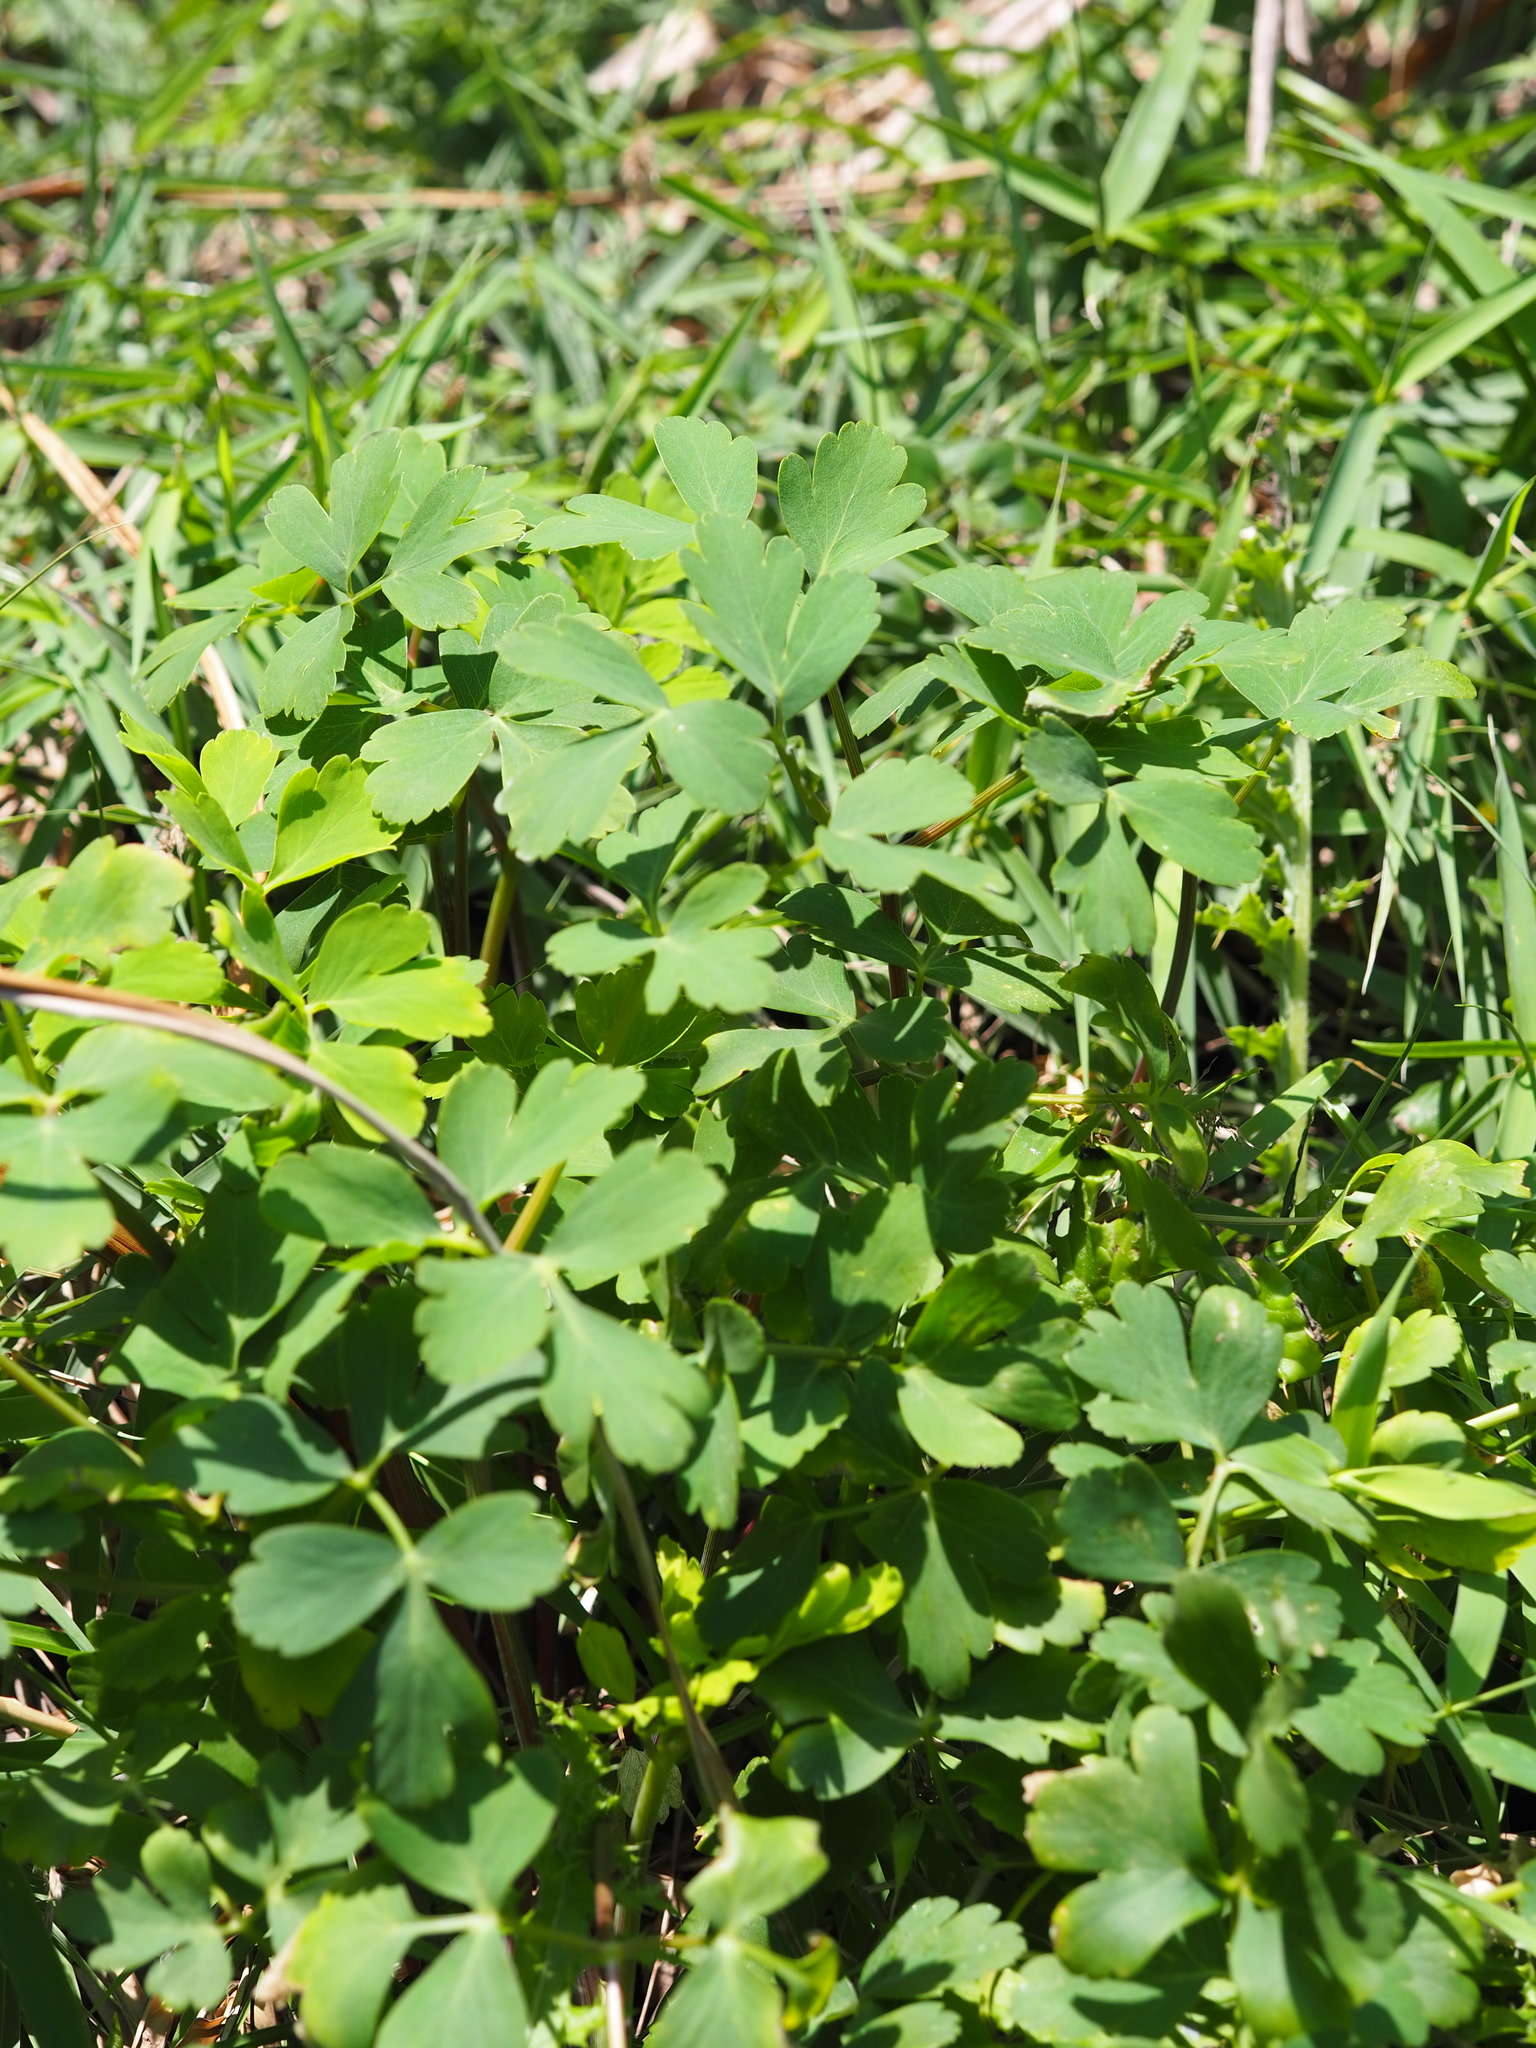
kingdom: Plantae
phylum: Tracheophyta
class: Magnoliopsida
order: Apiales
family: Apiaceae
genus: Peucedanum
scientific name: Peucedanum japonicum
